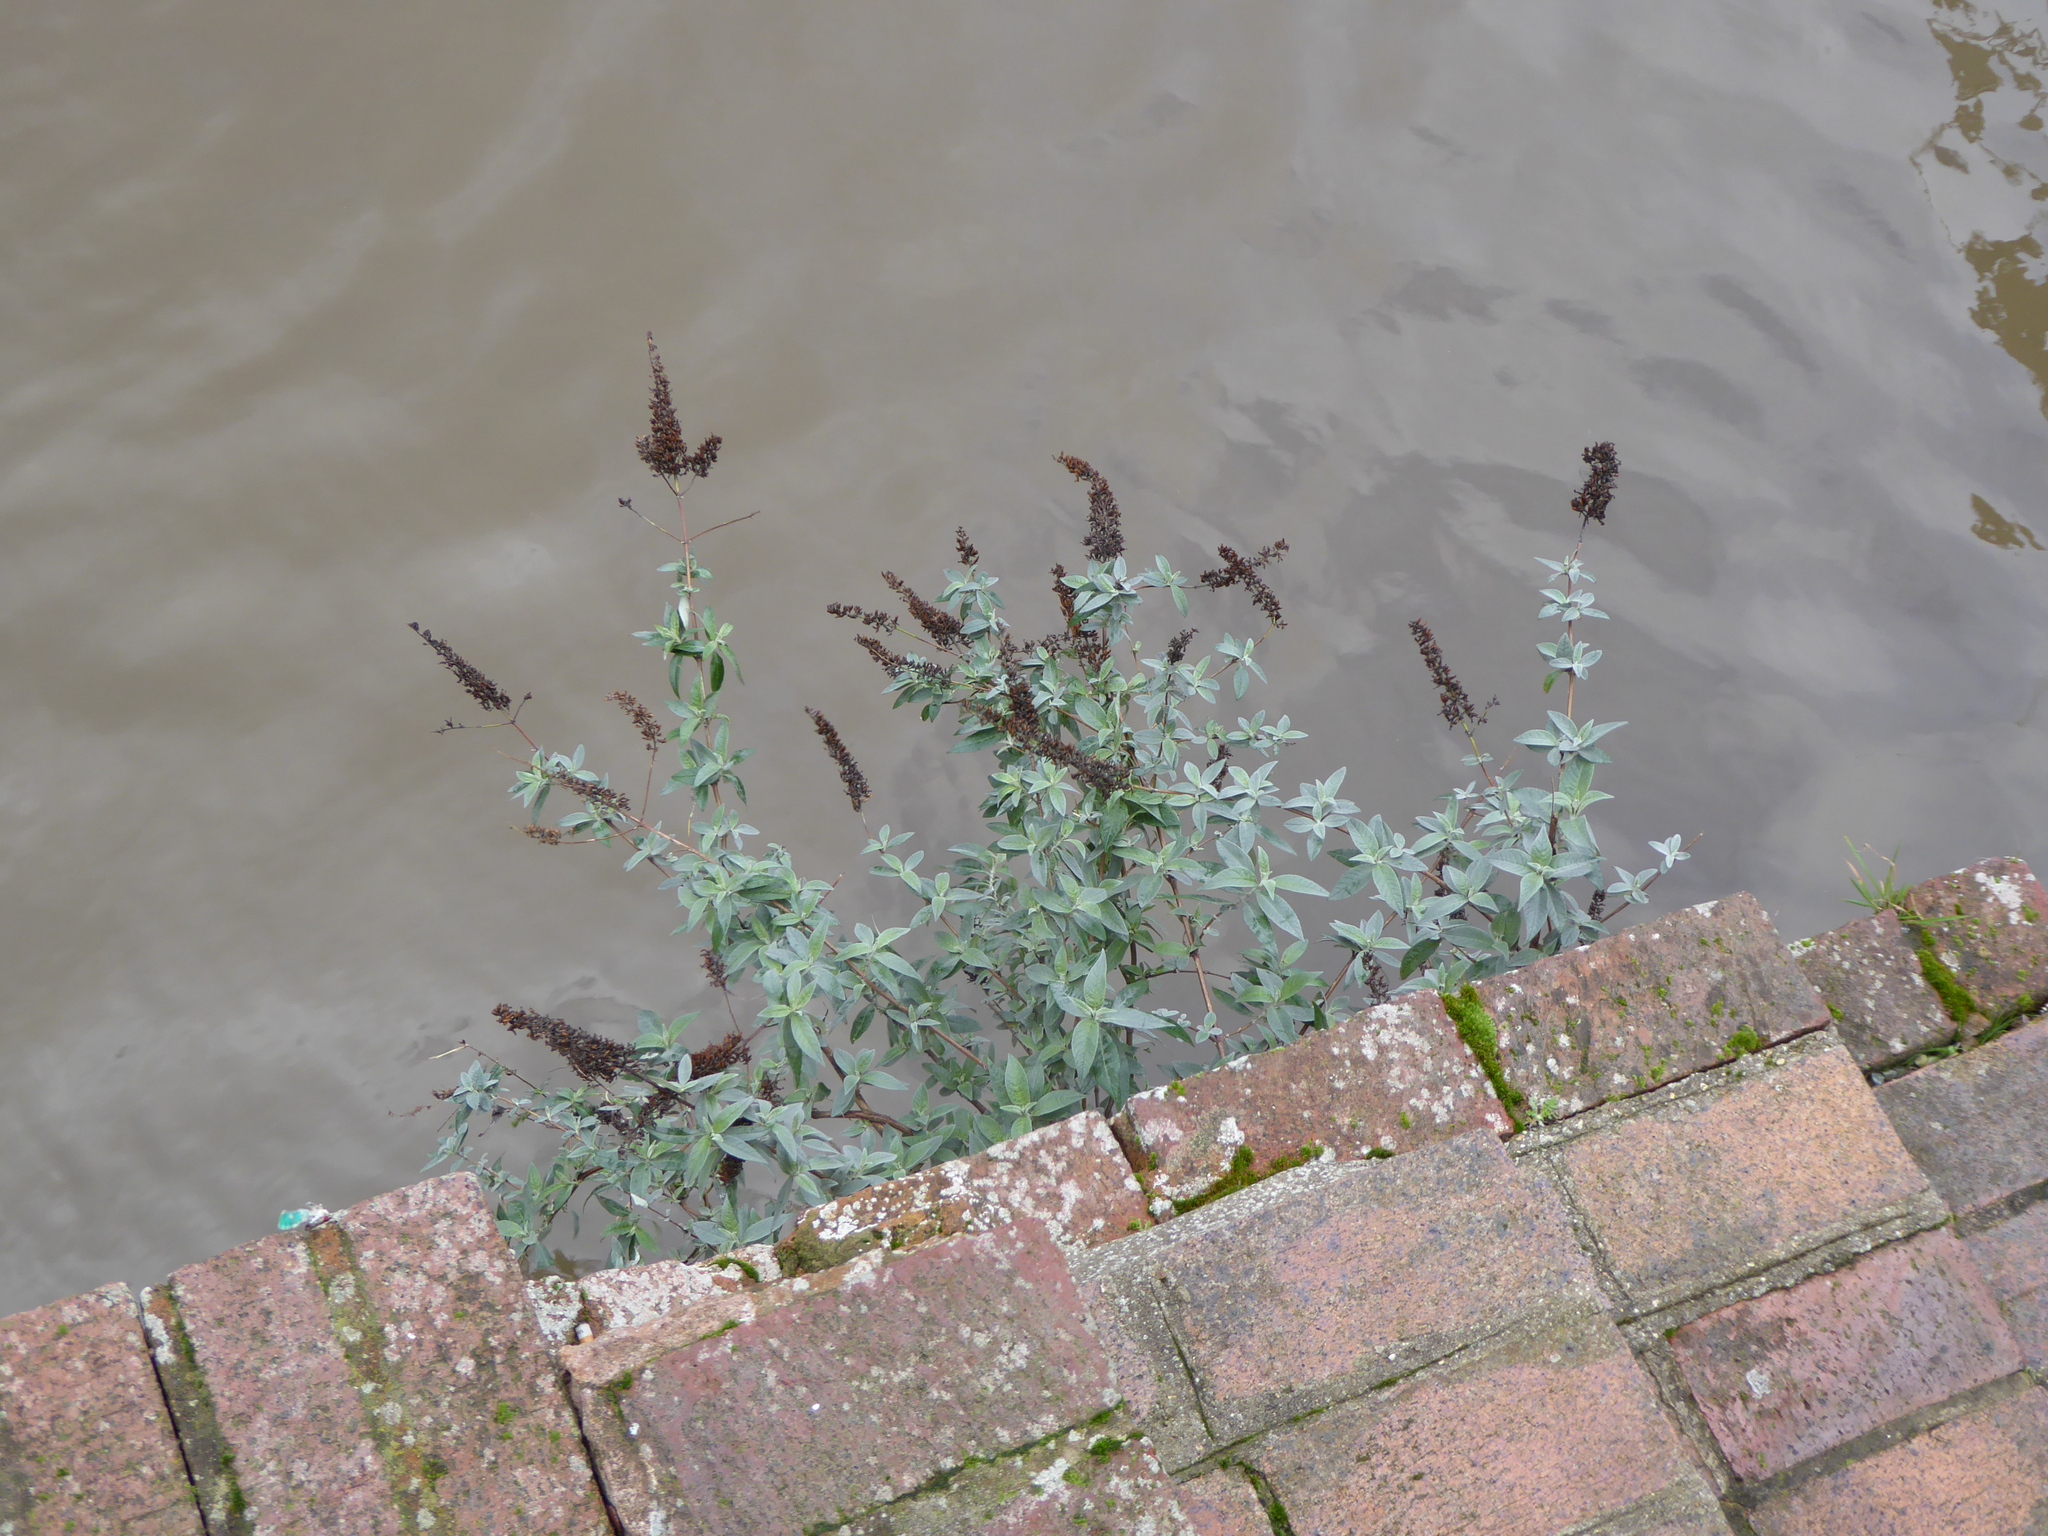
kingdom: Plantae
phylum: Tracheophyta
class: Magnoliopsida
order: Lamiales
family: Scrophulariaceae
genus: Buddleja
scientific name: Buddleja davidii
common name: Butterfly-bush
